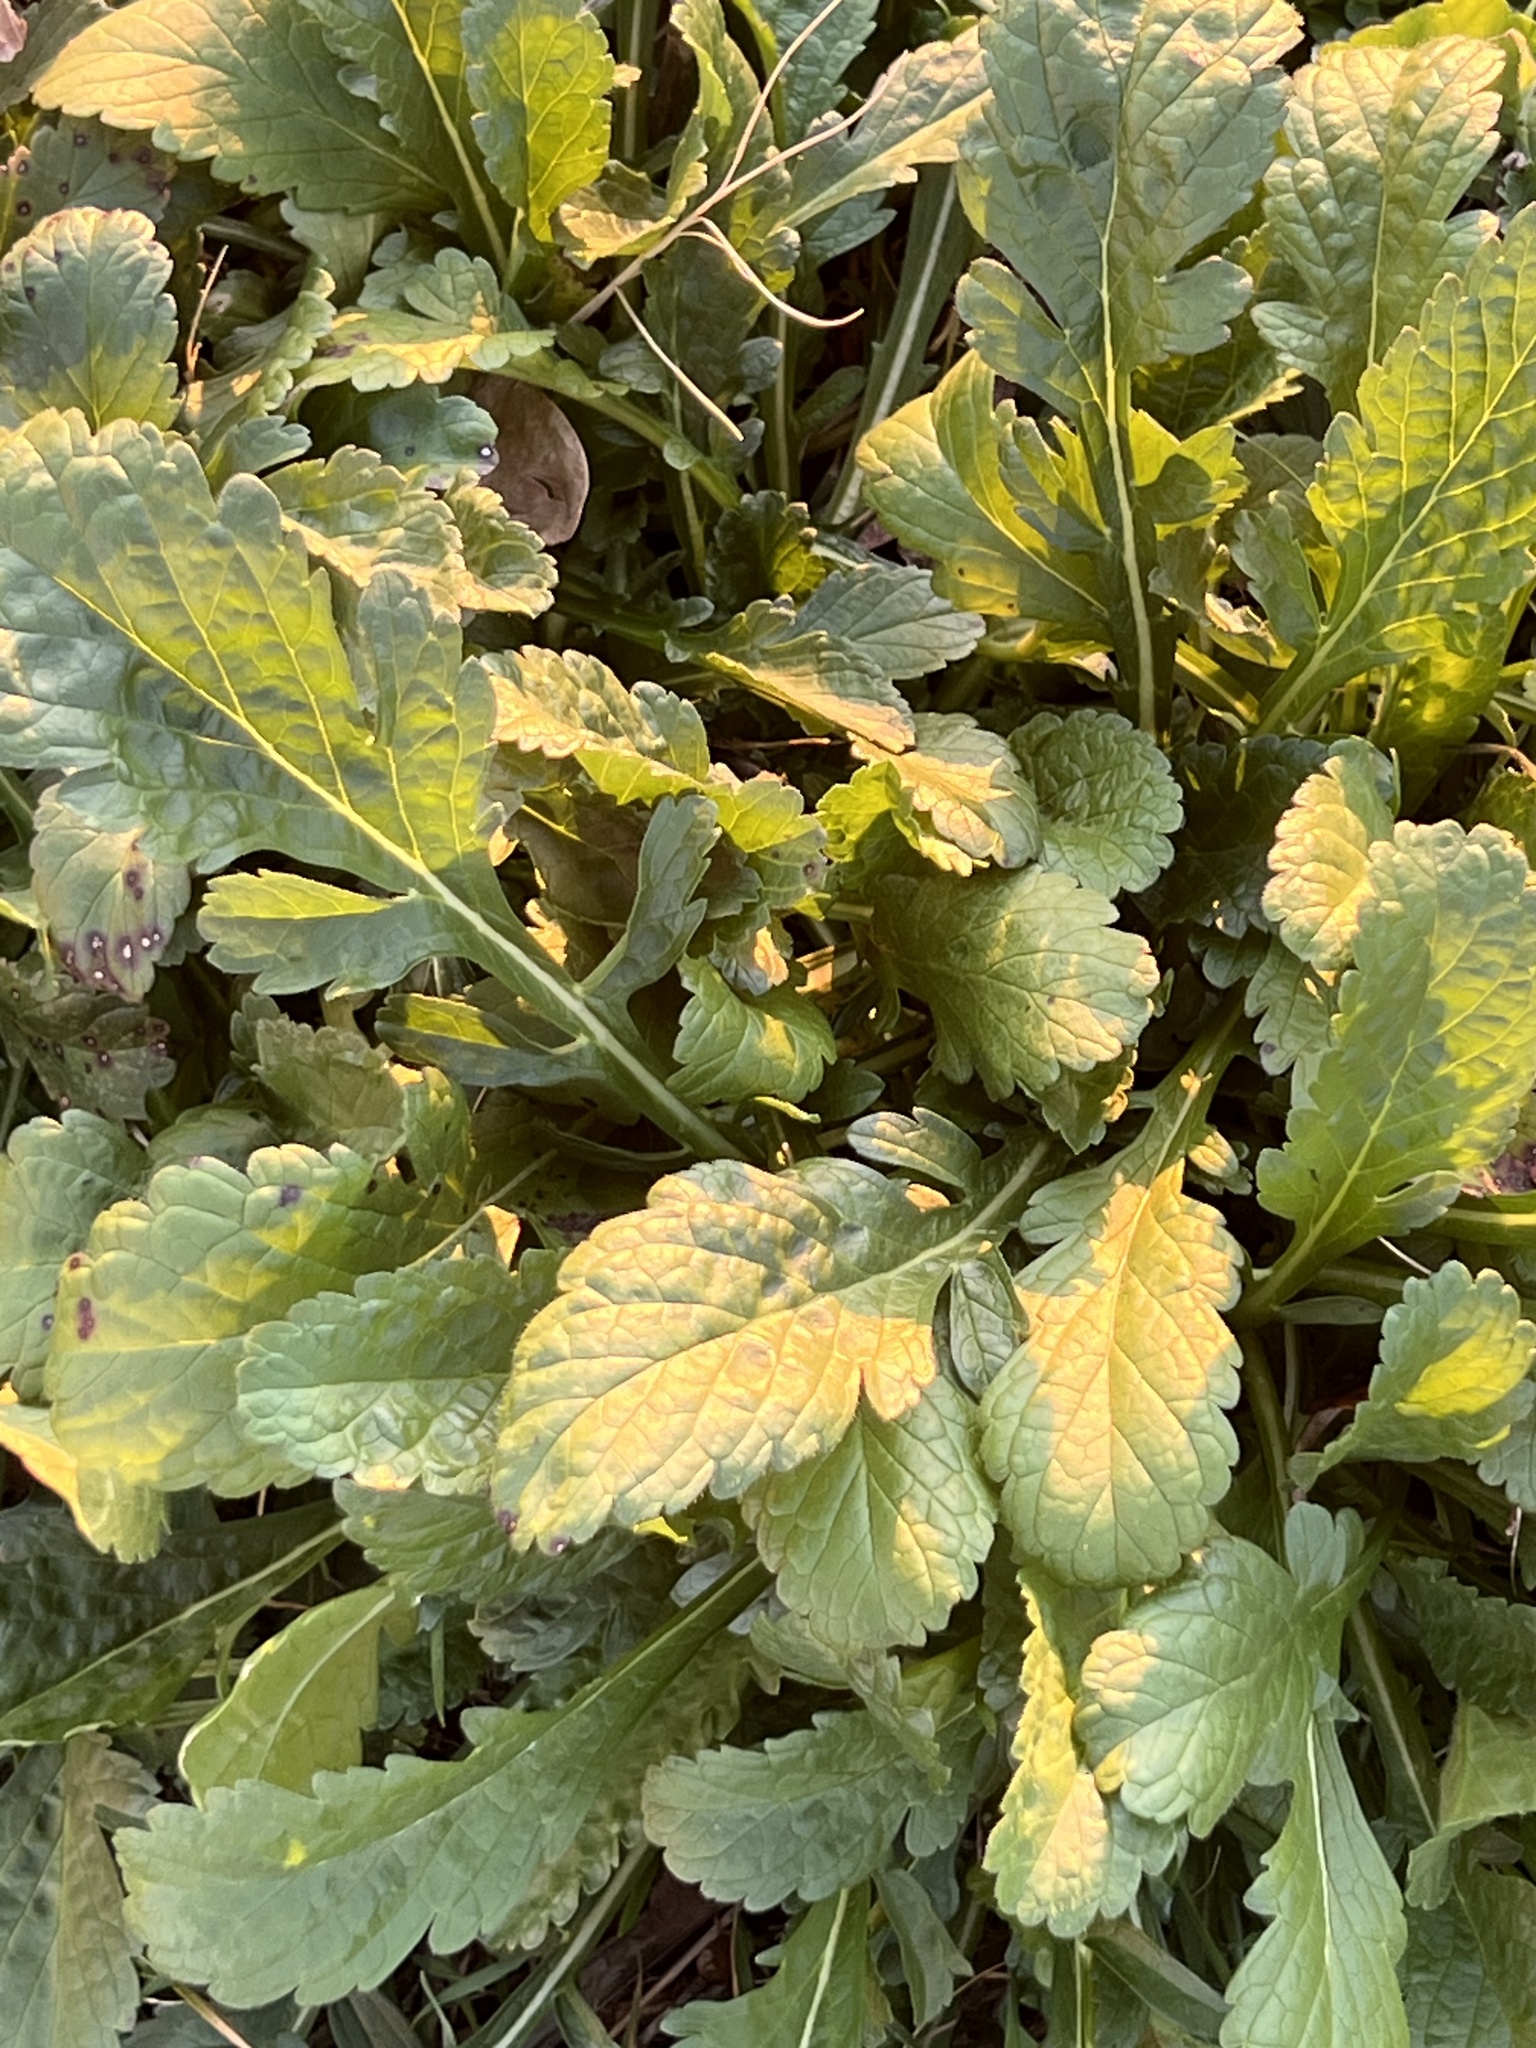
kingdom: Plantae
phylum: Tracheophyta
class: Magnoliopsida
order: Dipsacales
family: Caprifoliaceae
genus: Sixalix
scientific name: Sixalix atropurpurea
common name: Sweet scabious
